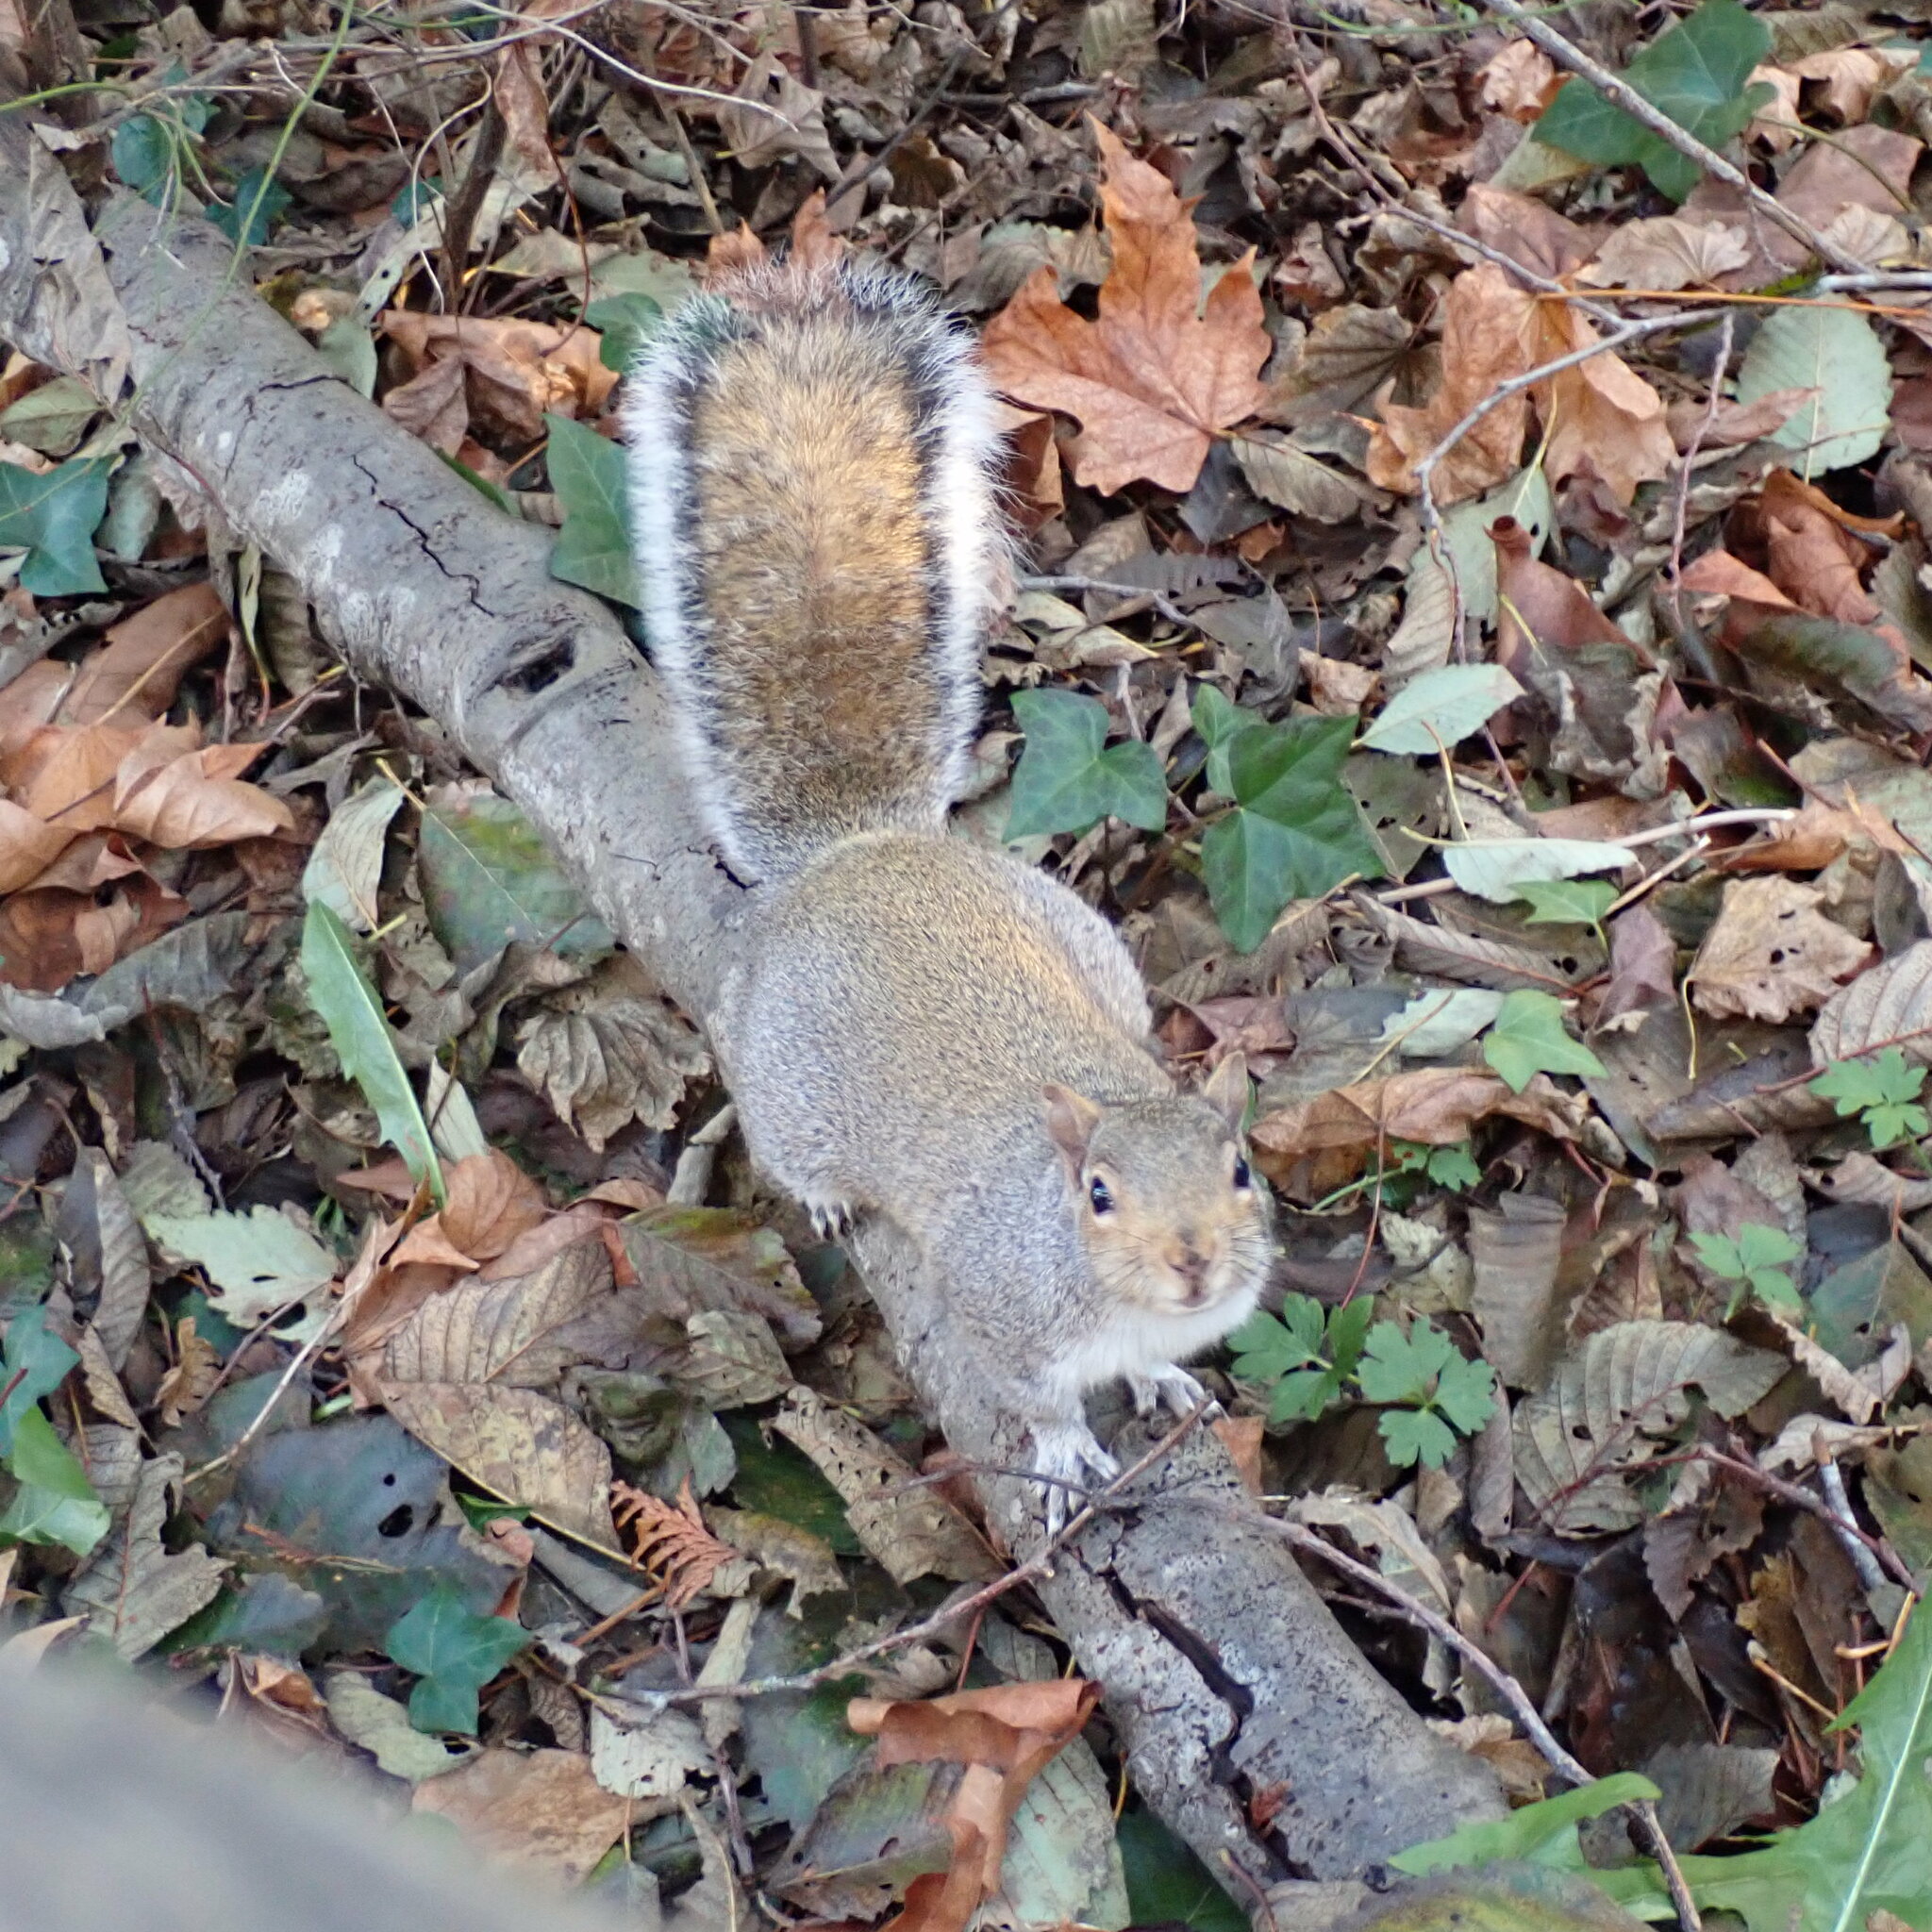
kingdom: Animalia
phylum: Chordata
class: Mammalia
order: Rodentia
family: Sciuridae
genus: Sciurus
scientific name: Sciurus carolinensis
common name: Eastern gray squirrel
